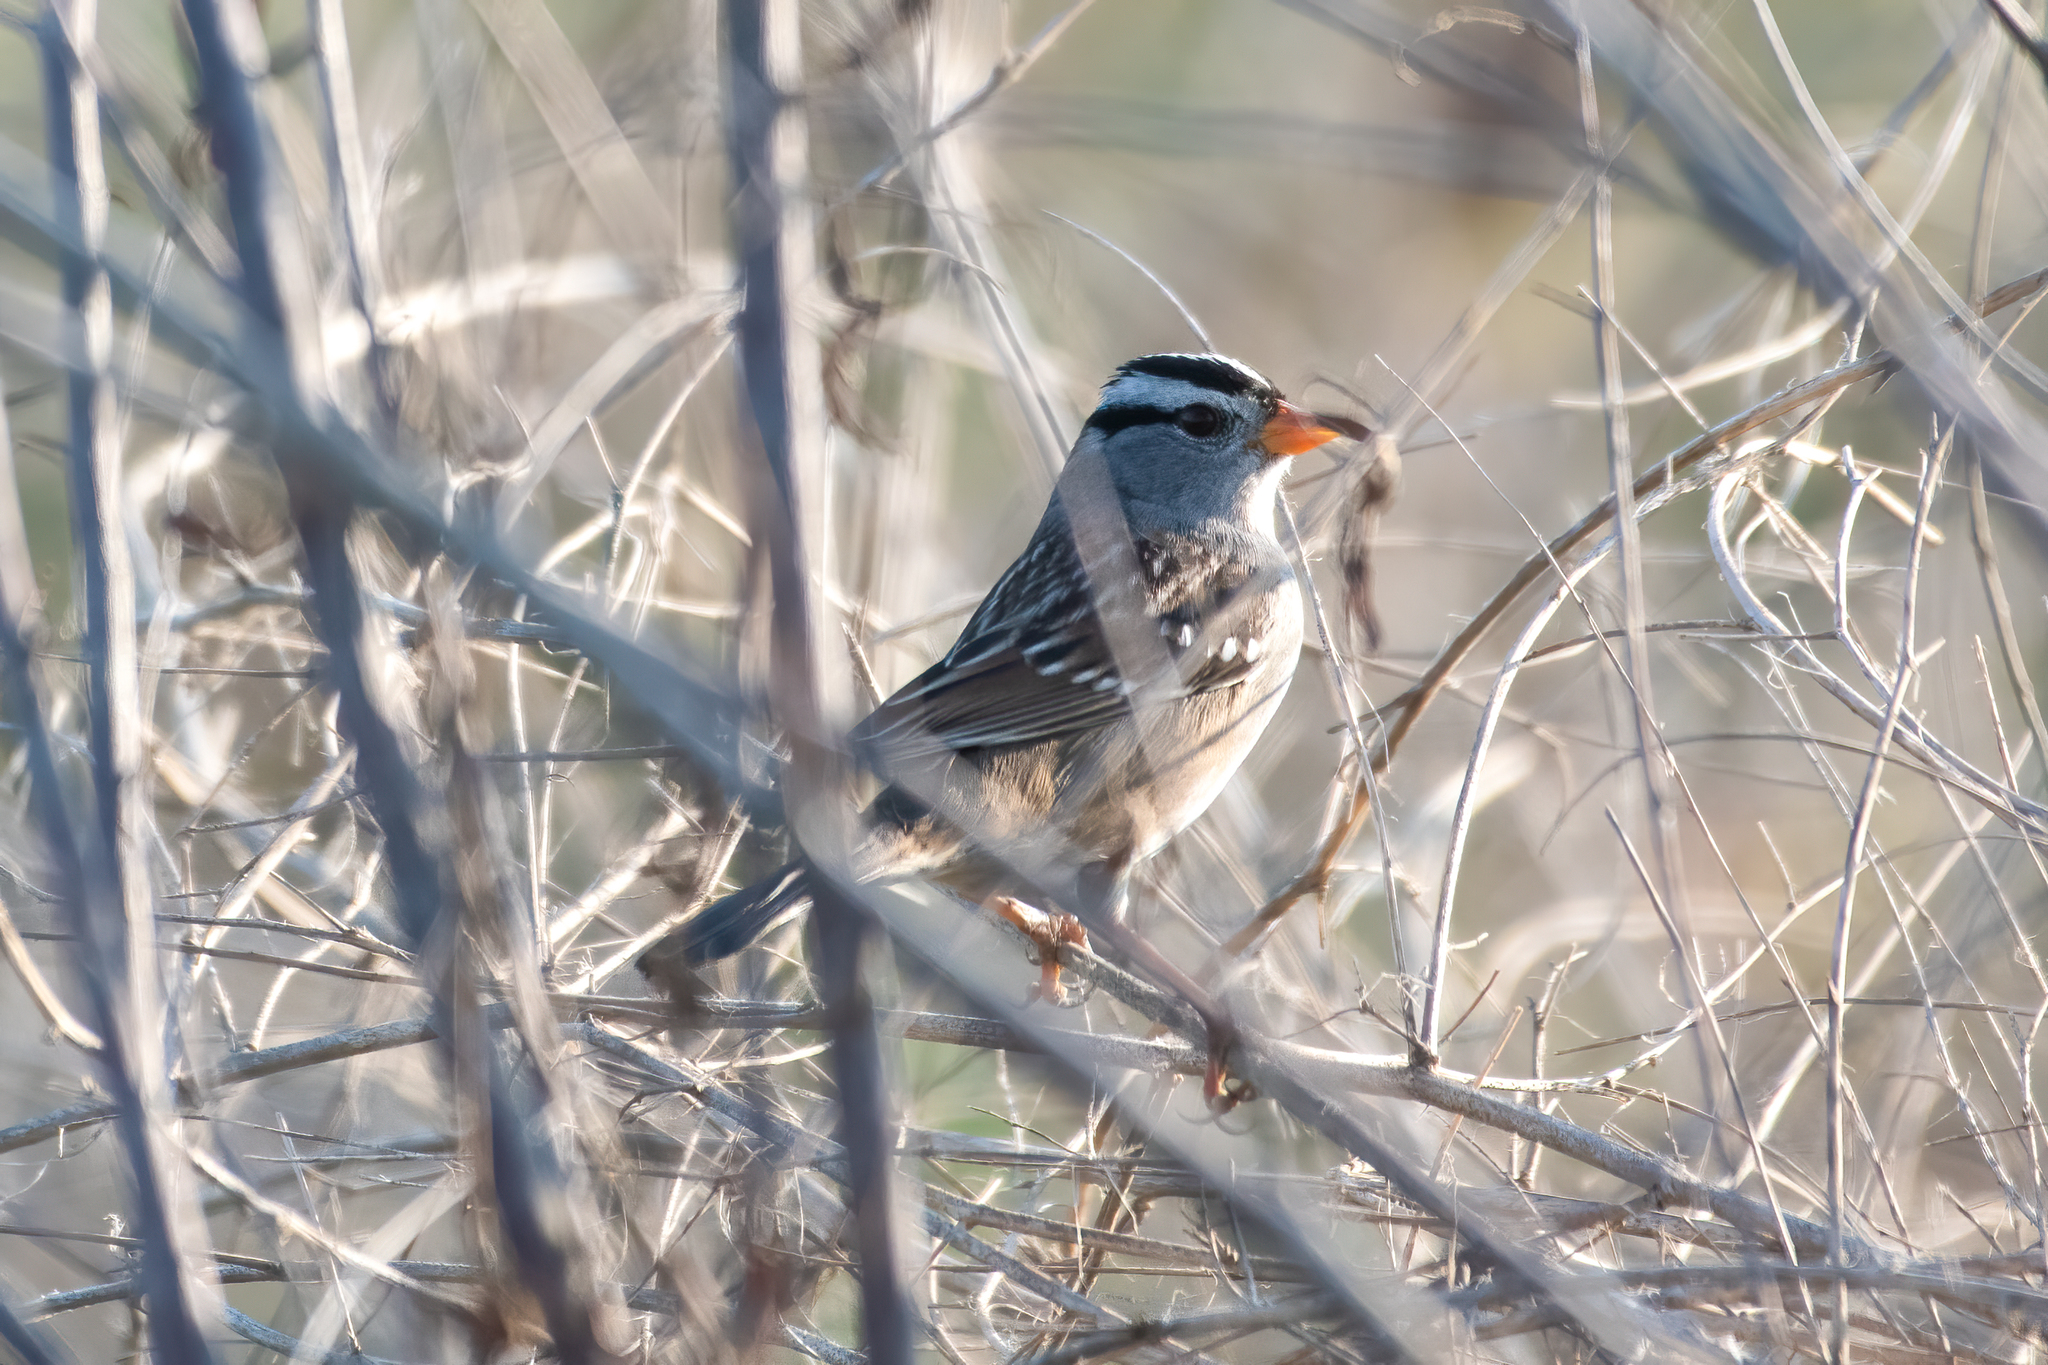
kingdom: Animalia
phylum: Chordata
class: Aves
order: Passeriformes
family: Passerellidae
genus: Zonotrichia
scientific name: Zonotrichia leucophrys
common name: White-crowned sparrow
